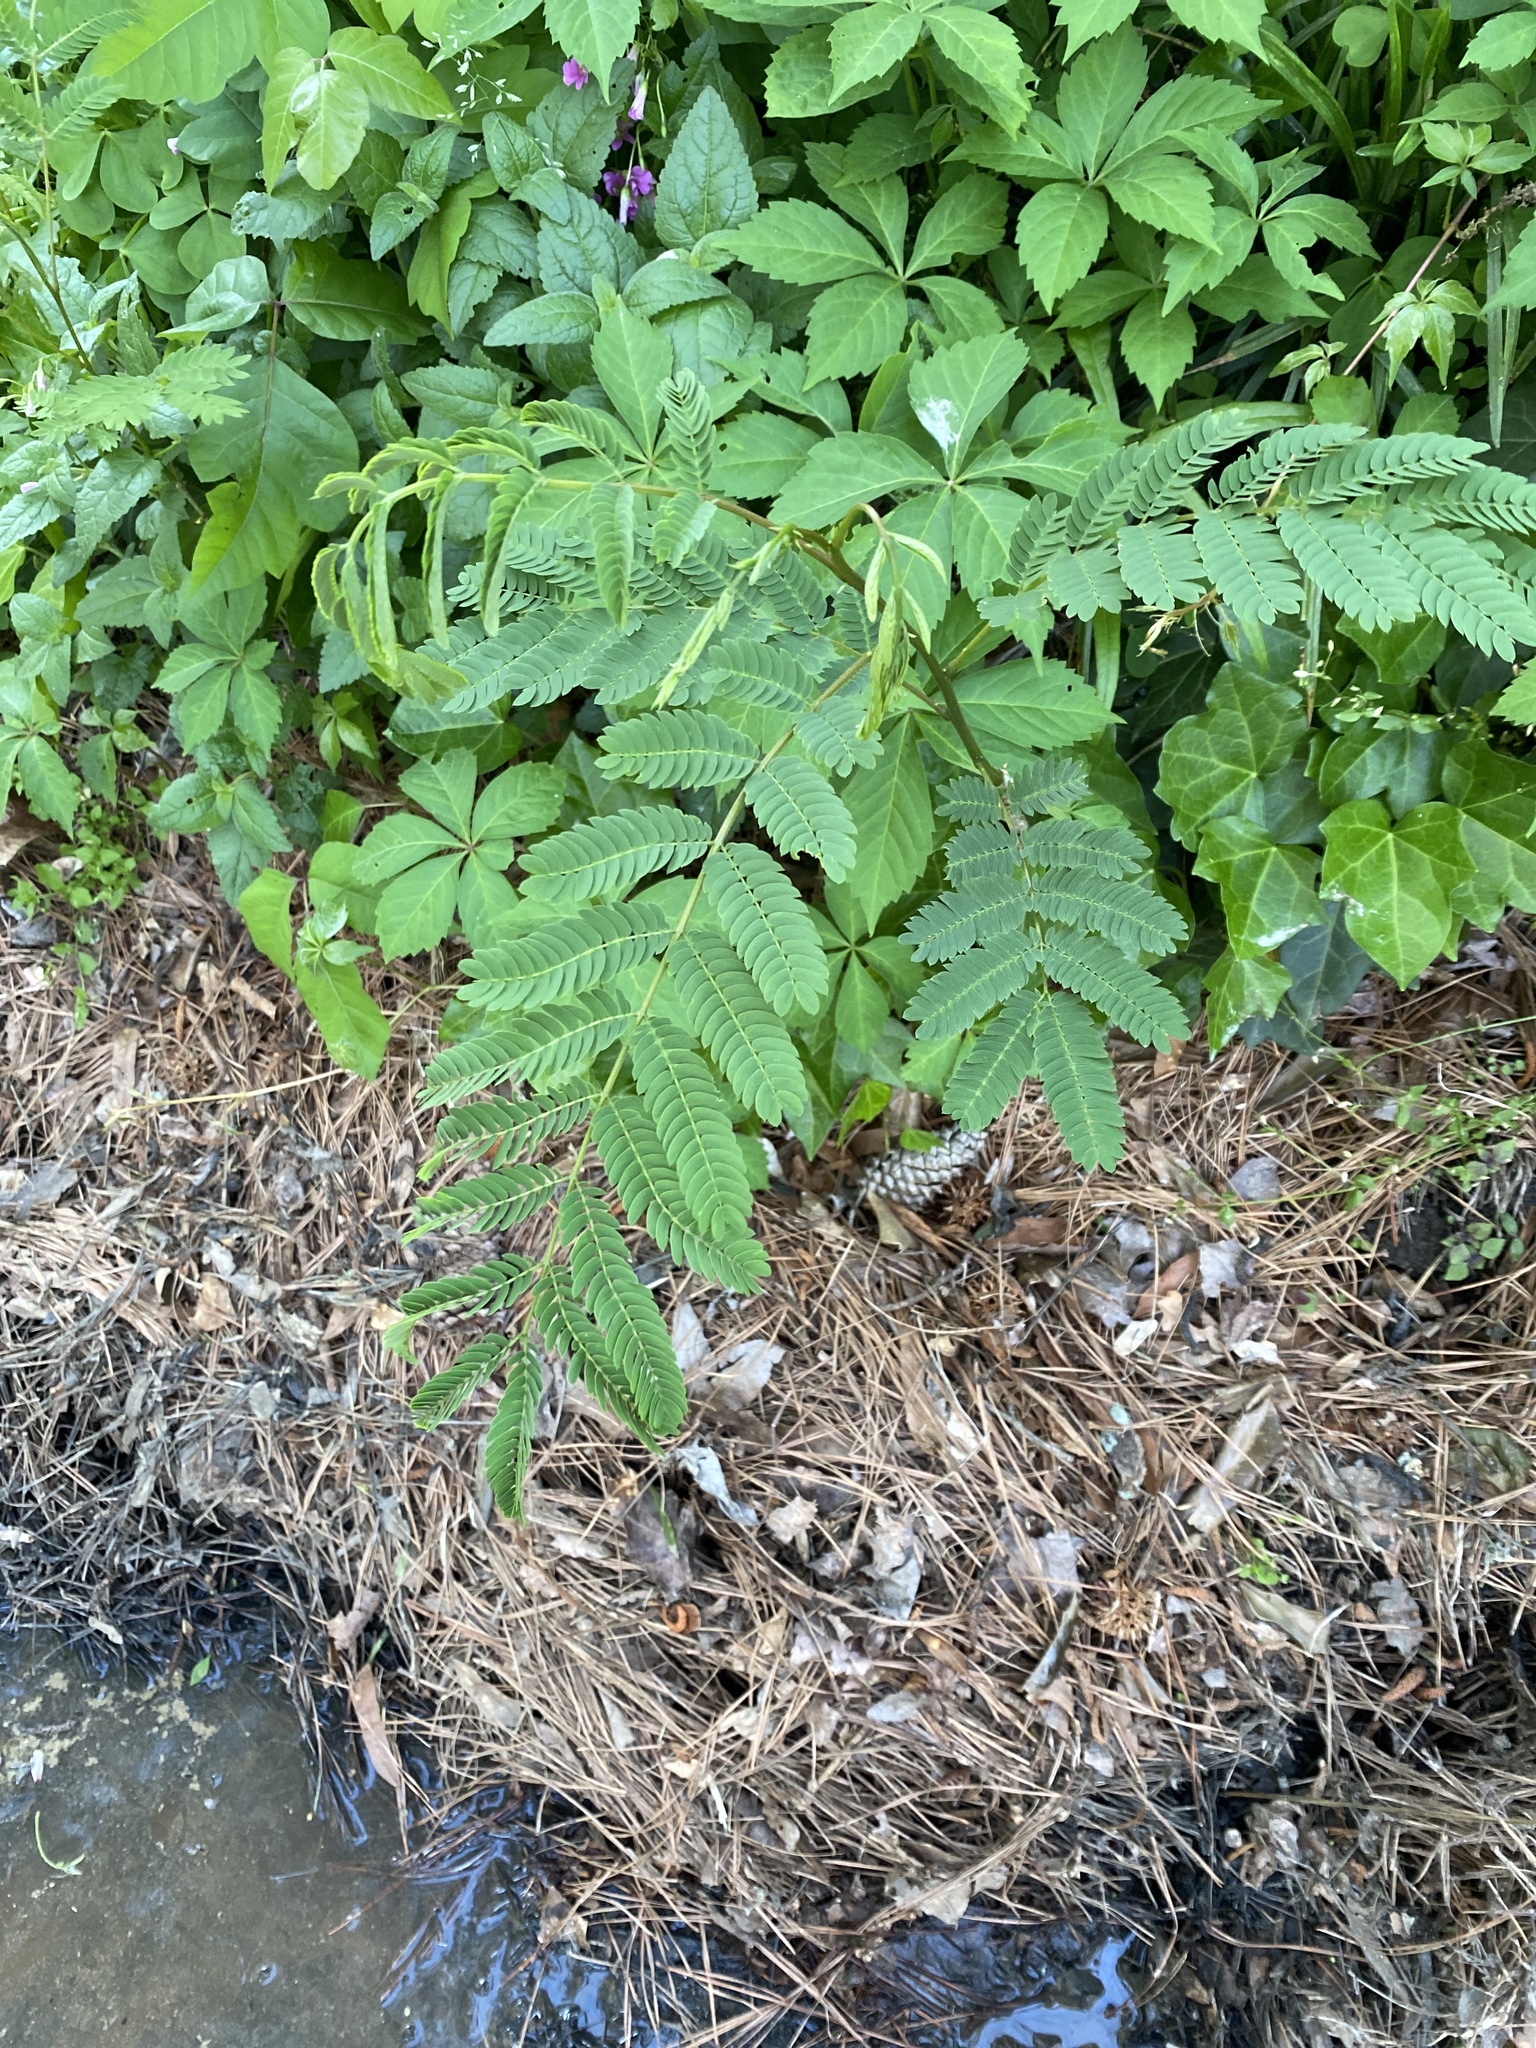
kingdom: Plantae
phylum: Tracheophyta
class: Magnoliopsida
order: Fabales
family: Fabaceae
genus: Albizia
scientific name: Albizia julibrissin
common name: Silktree
